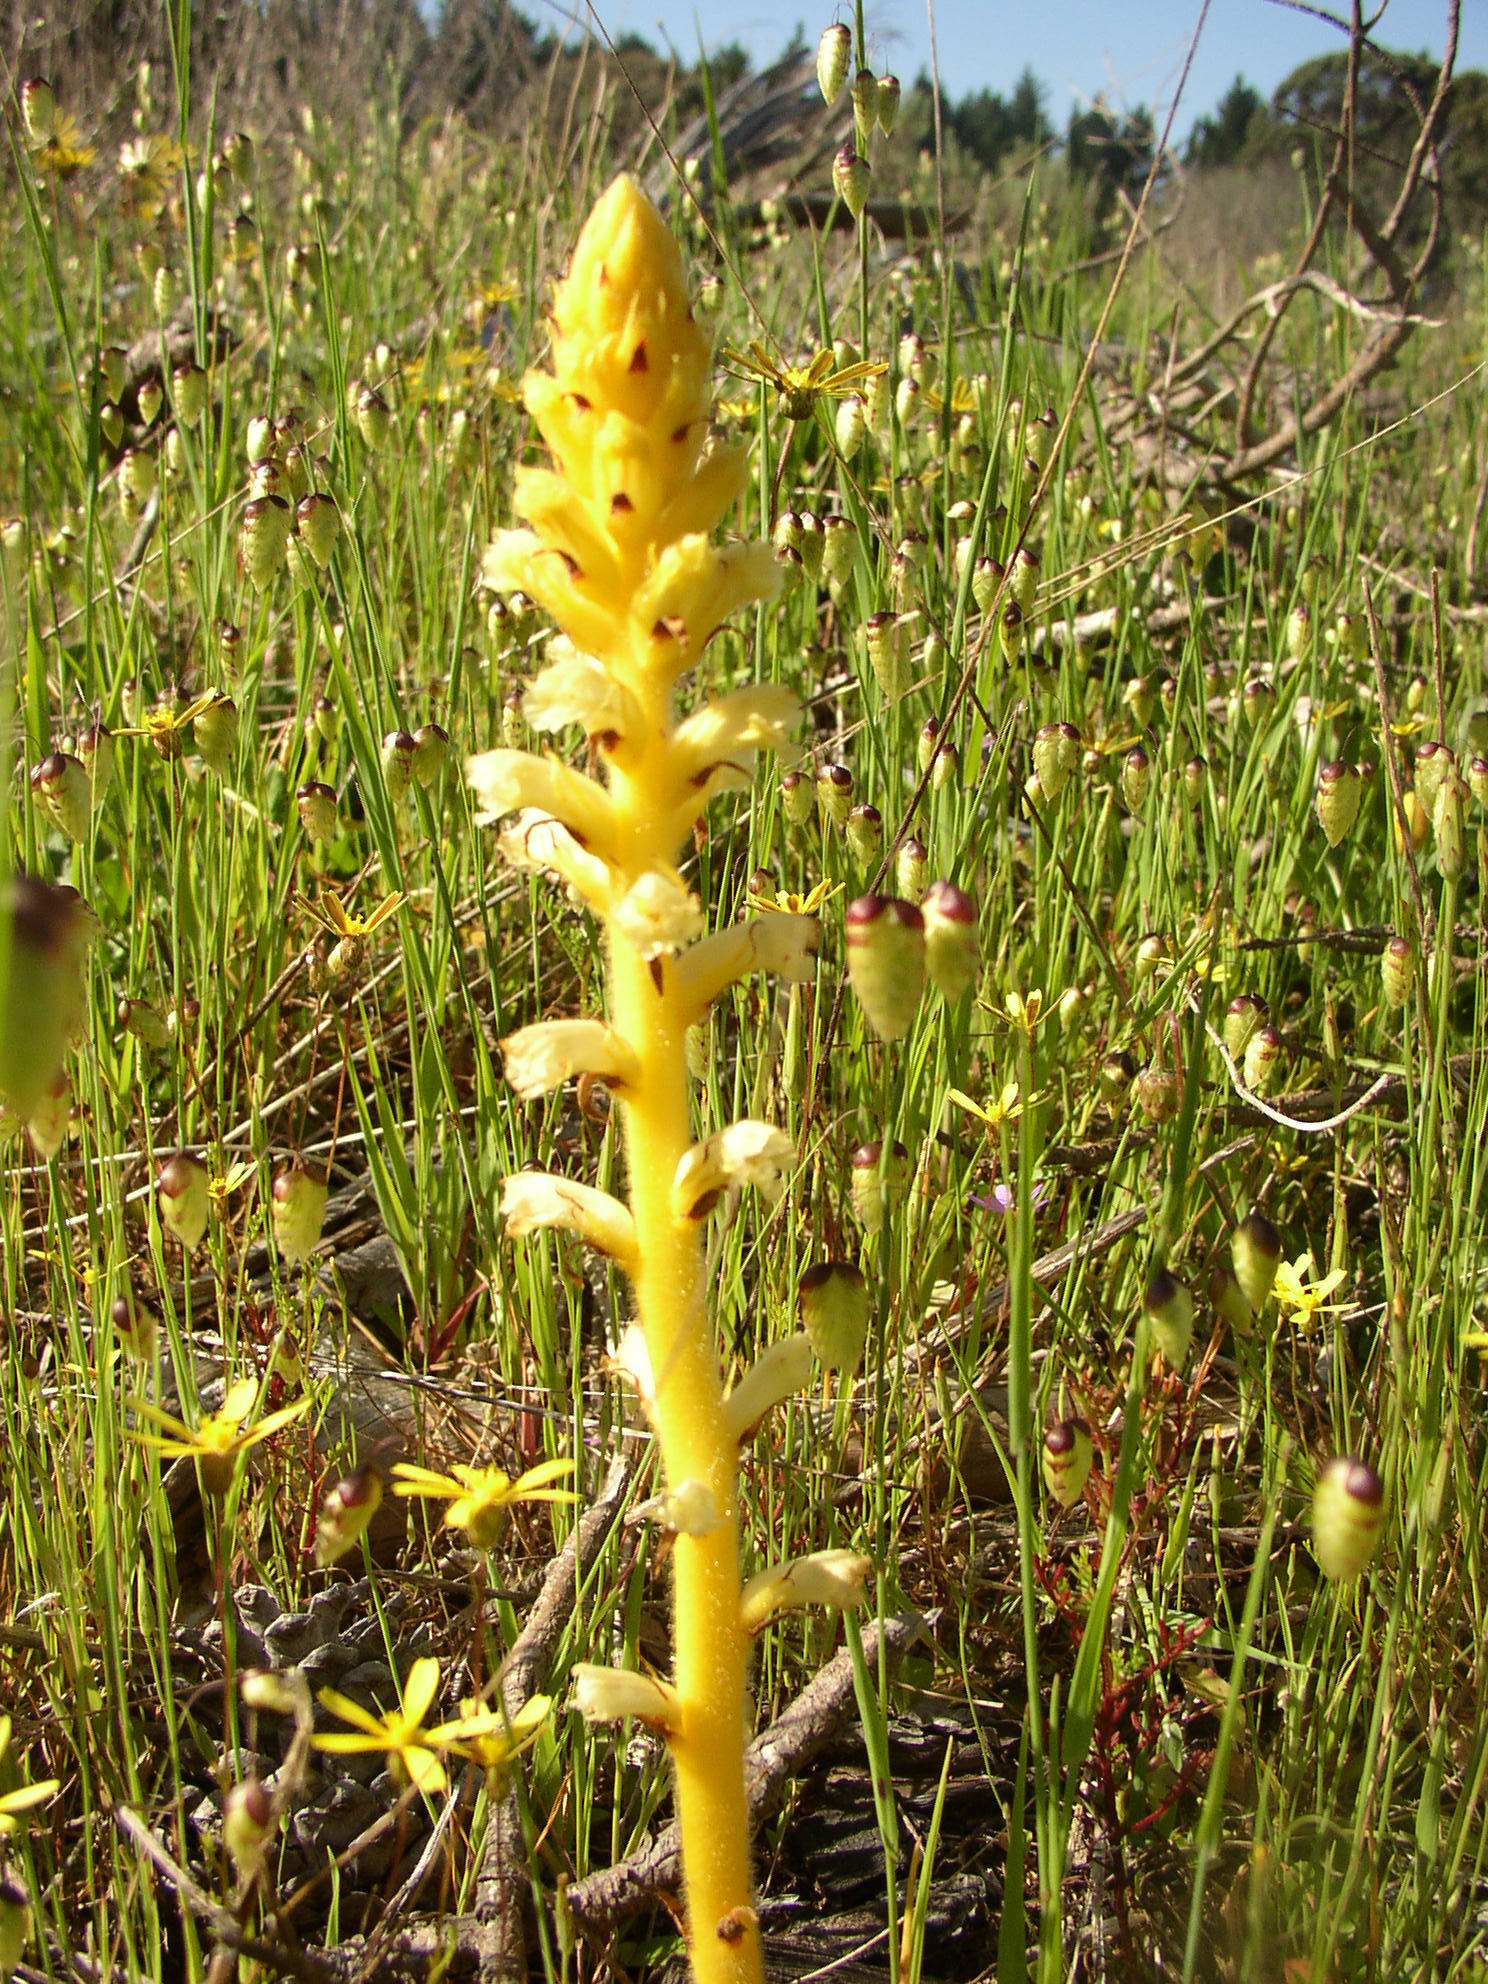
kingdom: Plantae
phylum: Tracheophyta
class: Magnoliopsida
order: Lamiales
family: Orobanchaceae
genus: Orobanche
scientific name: Orobanche minor
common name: Common broomrape
